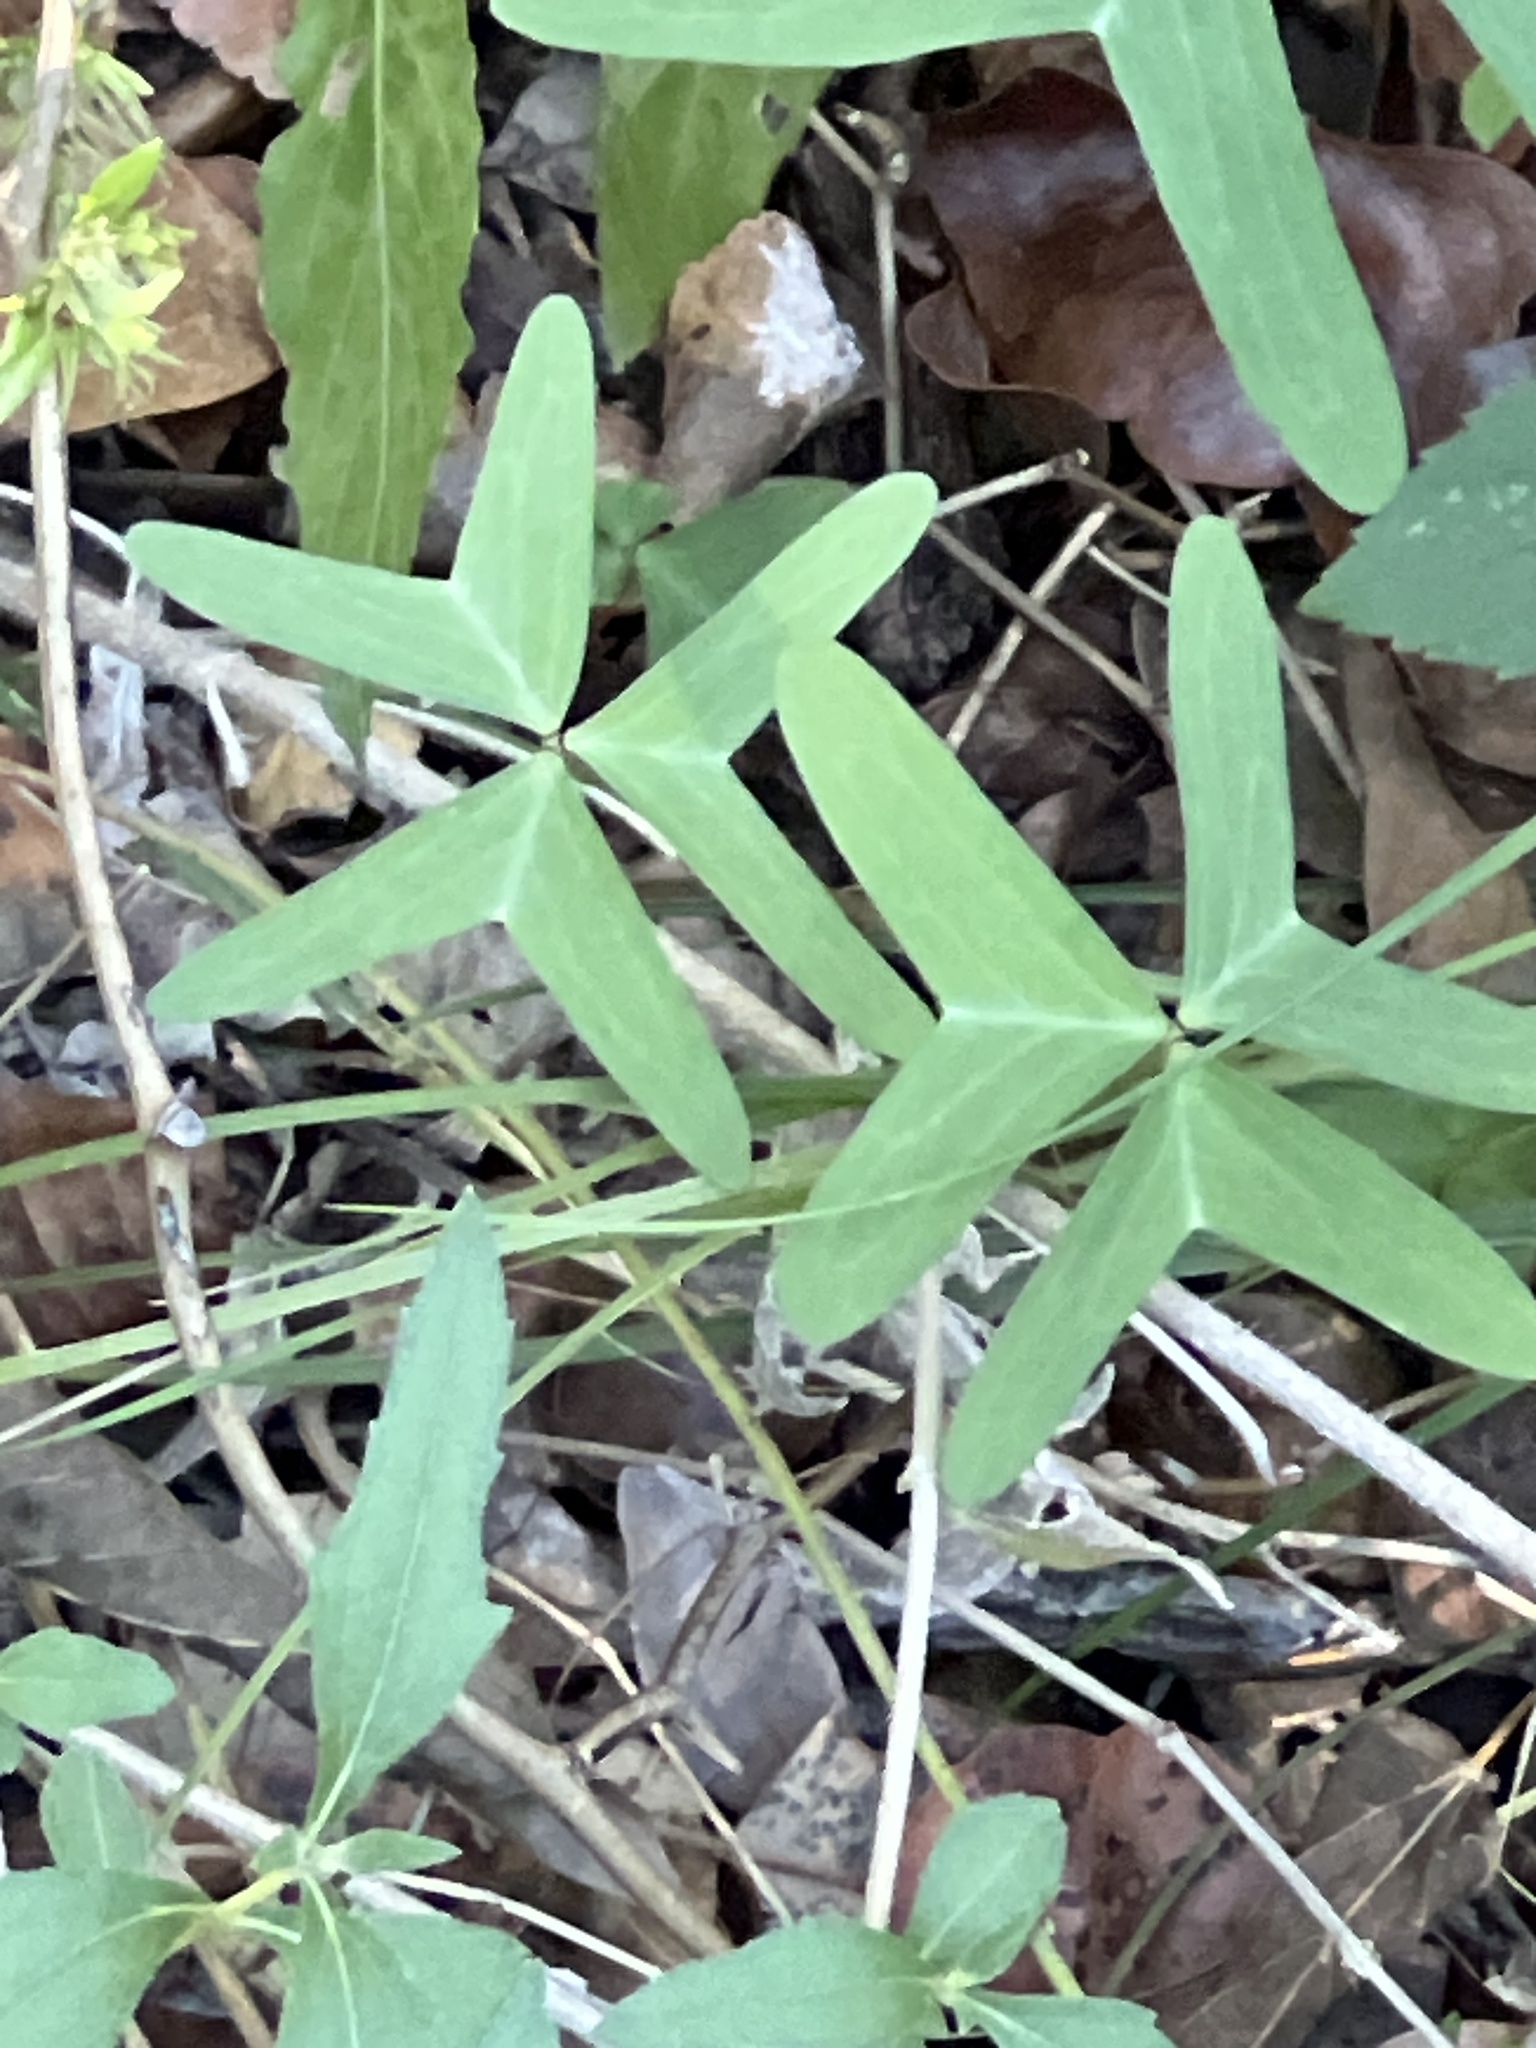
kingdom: Plantae
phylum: Tracheophyta
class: Magnoliopsida
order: Oxalidales
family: Oxalidaceae
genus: Oxalis
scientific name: Oxalis drummondii
